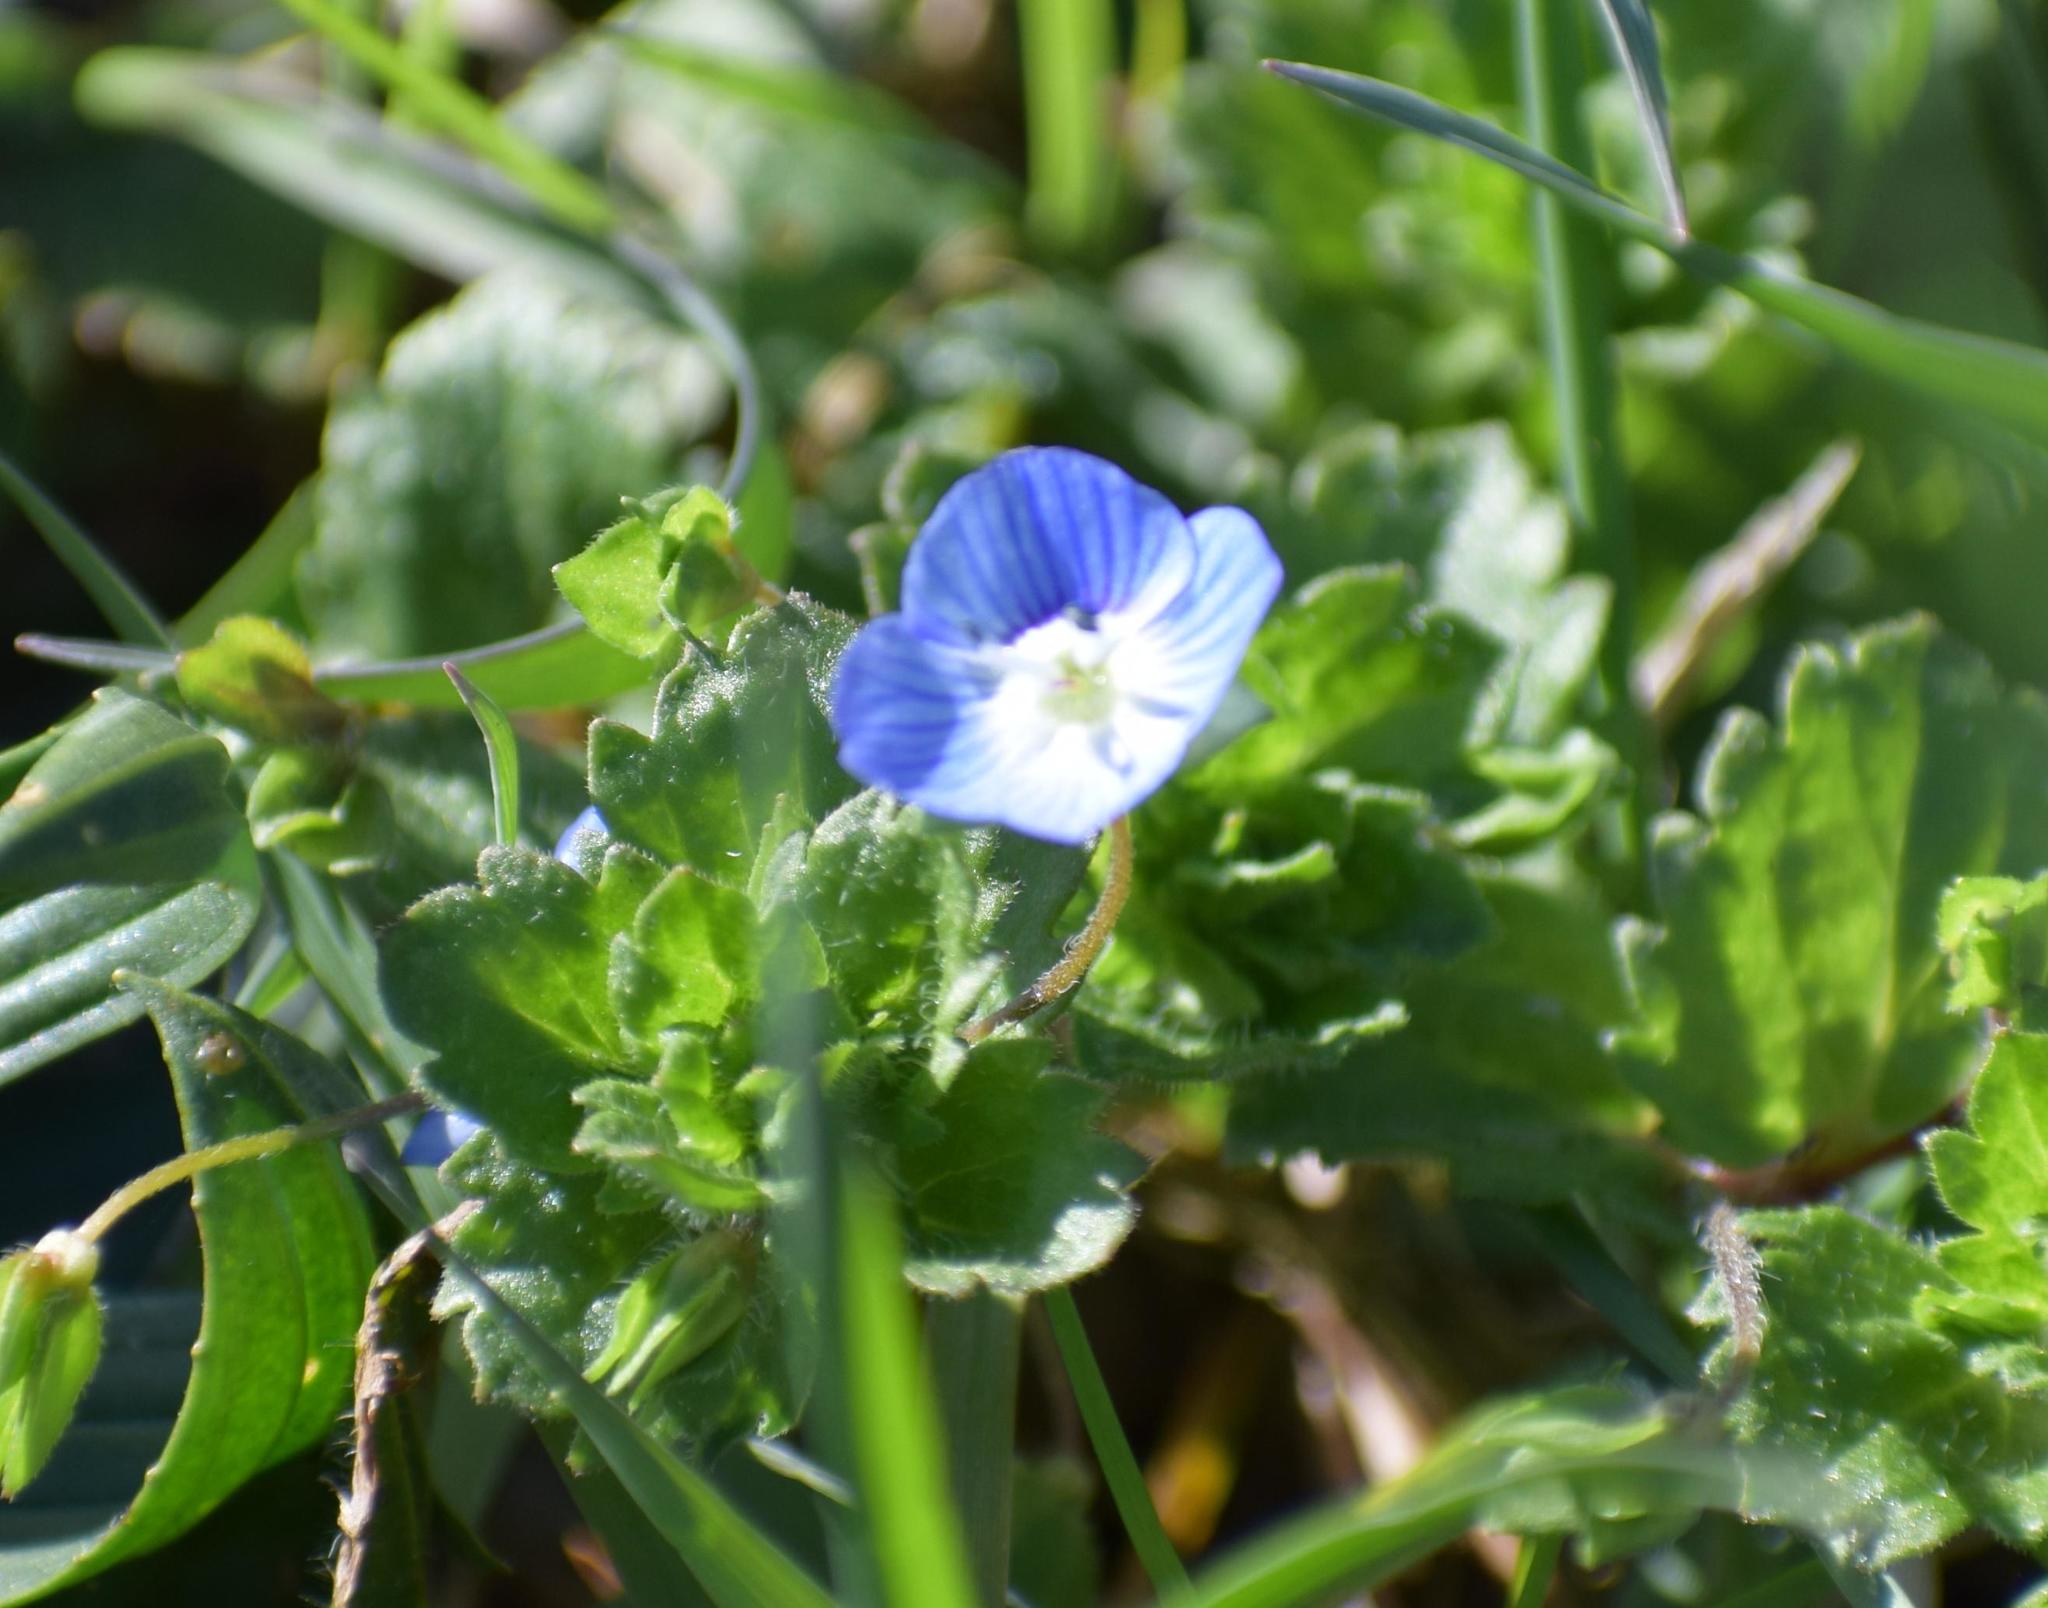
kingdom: Plantae
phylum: Tracheophyta
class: Magnoliopsida
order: Lamiales
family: Plantaginaceae
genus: Veronica
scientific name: Veronica persica
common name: Common field-speedwell
